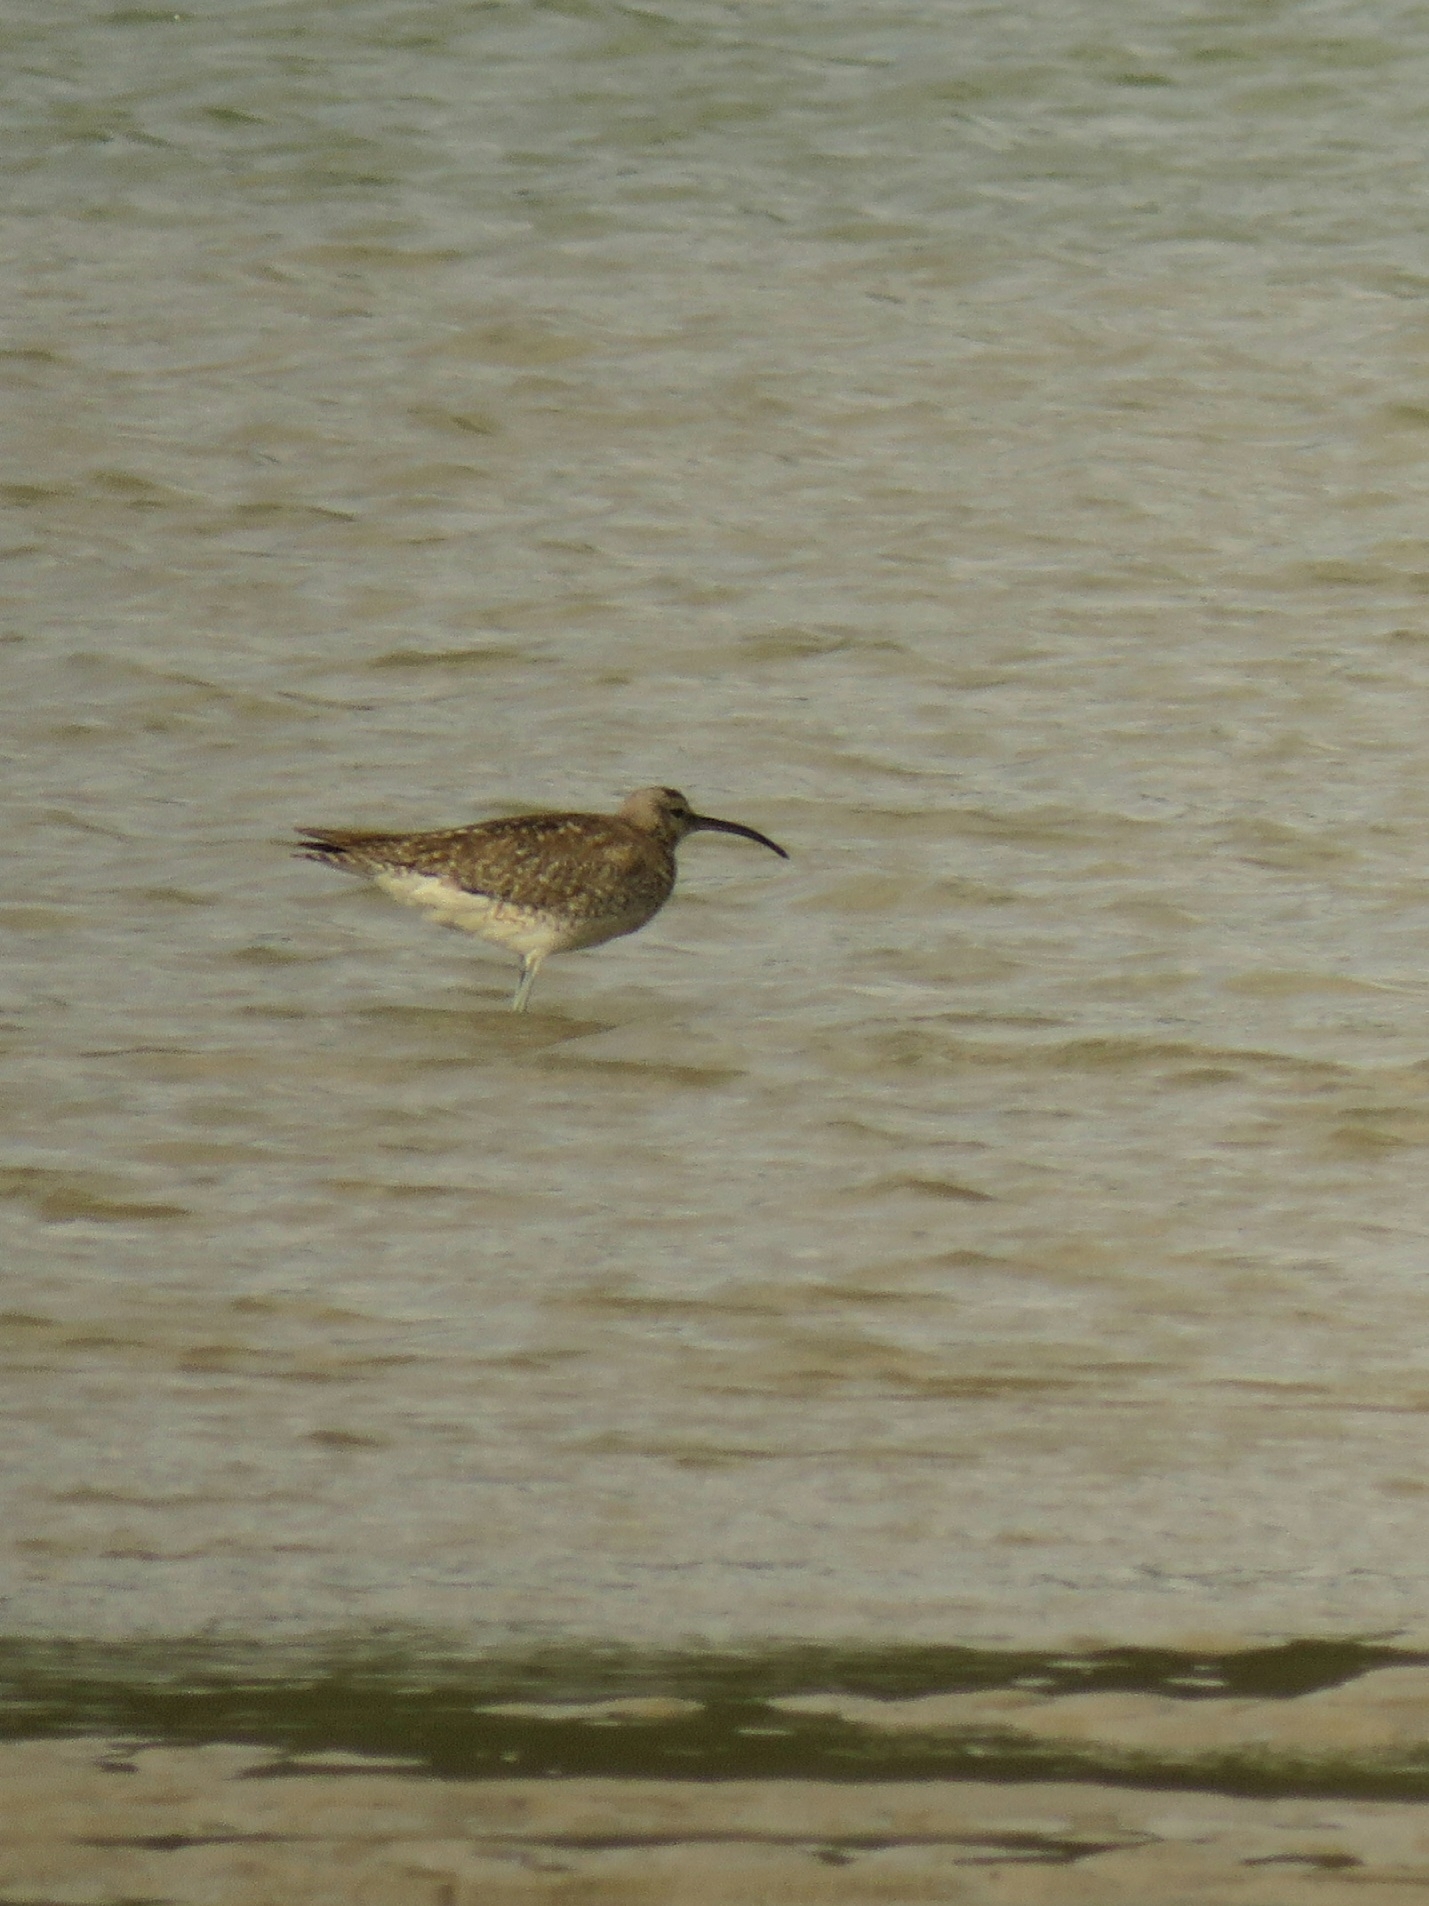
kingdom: Animalia
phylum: Chordata
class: Aves
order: Charadriiformes
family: Scolopacidae
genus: Numenius
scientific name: Numenius phaeopus
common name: Whimbrel
